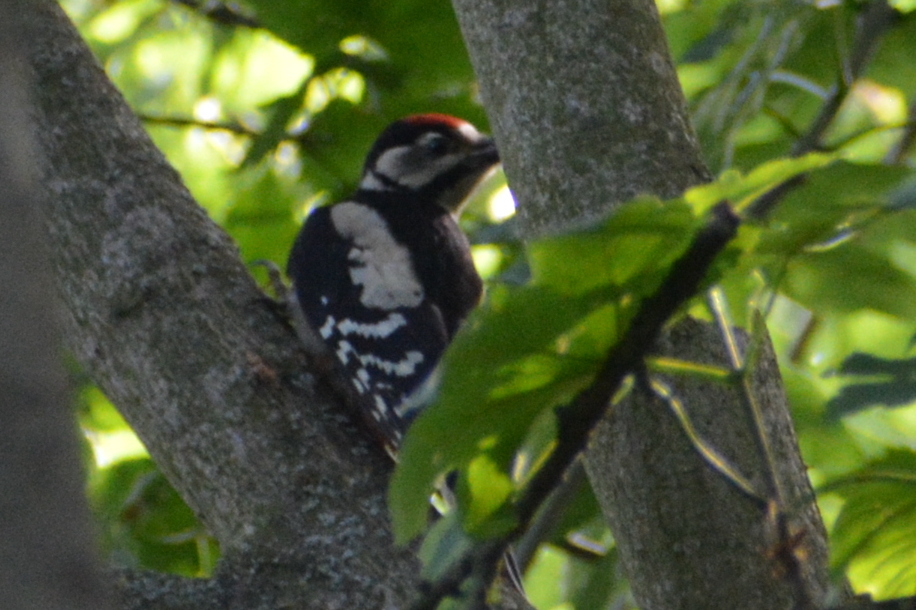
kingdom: Animalia
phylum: Chordata
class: Aves
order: Piciformes
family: Picidae
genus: Dendrocopos
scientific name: Dendrocopos major
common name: Great spotted woodpecker
